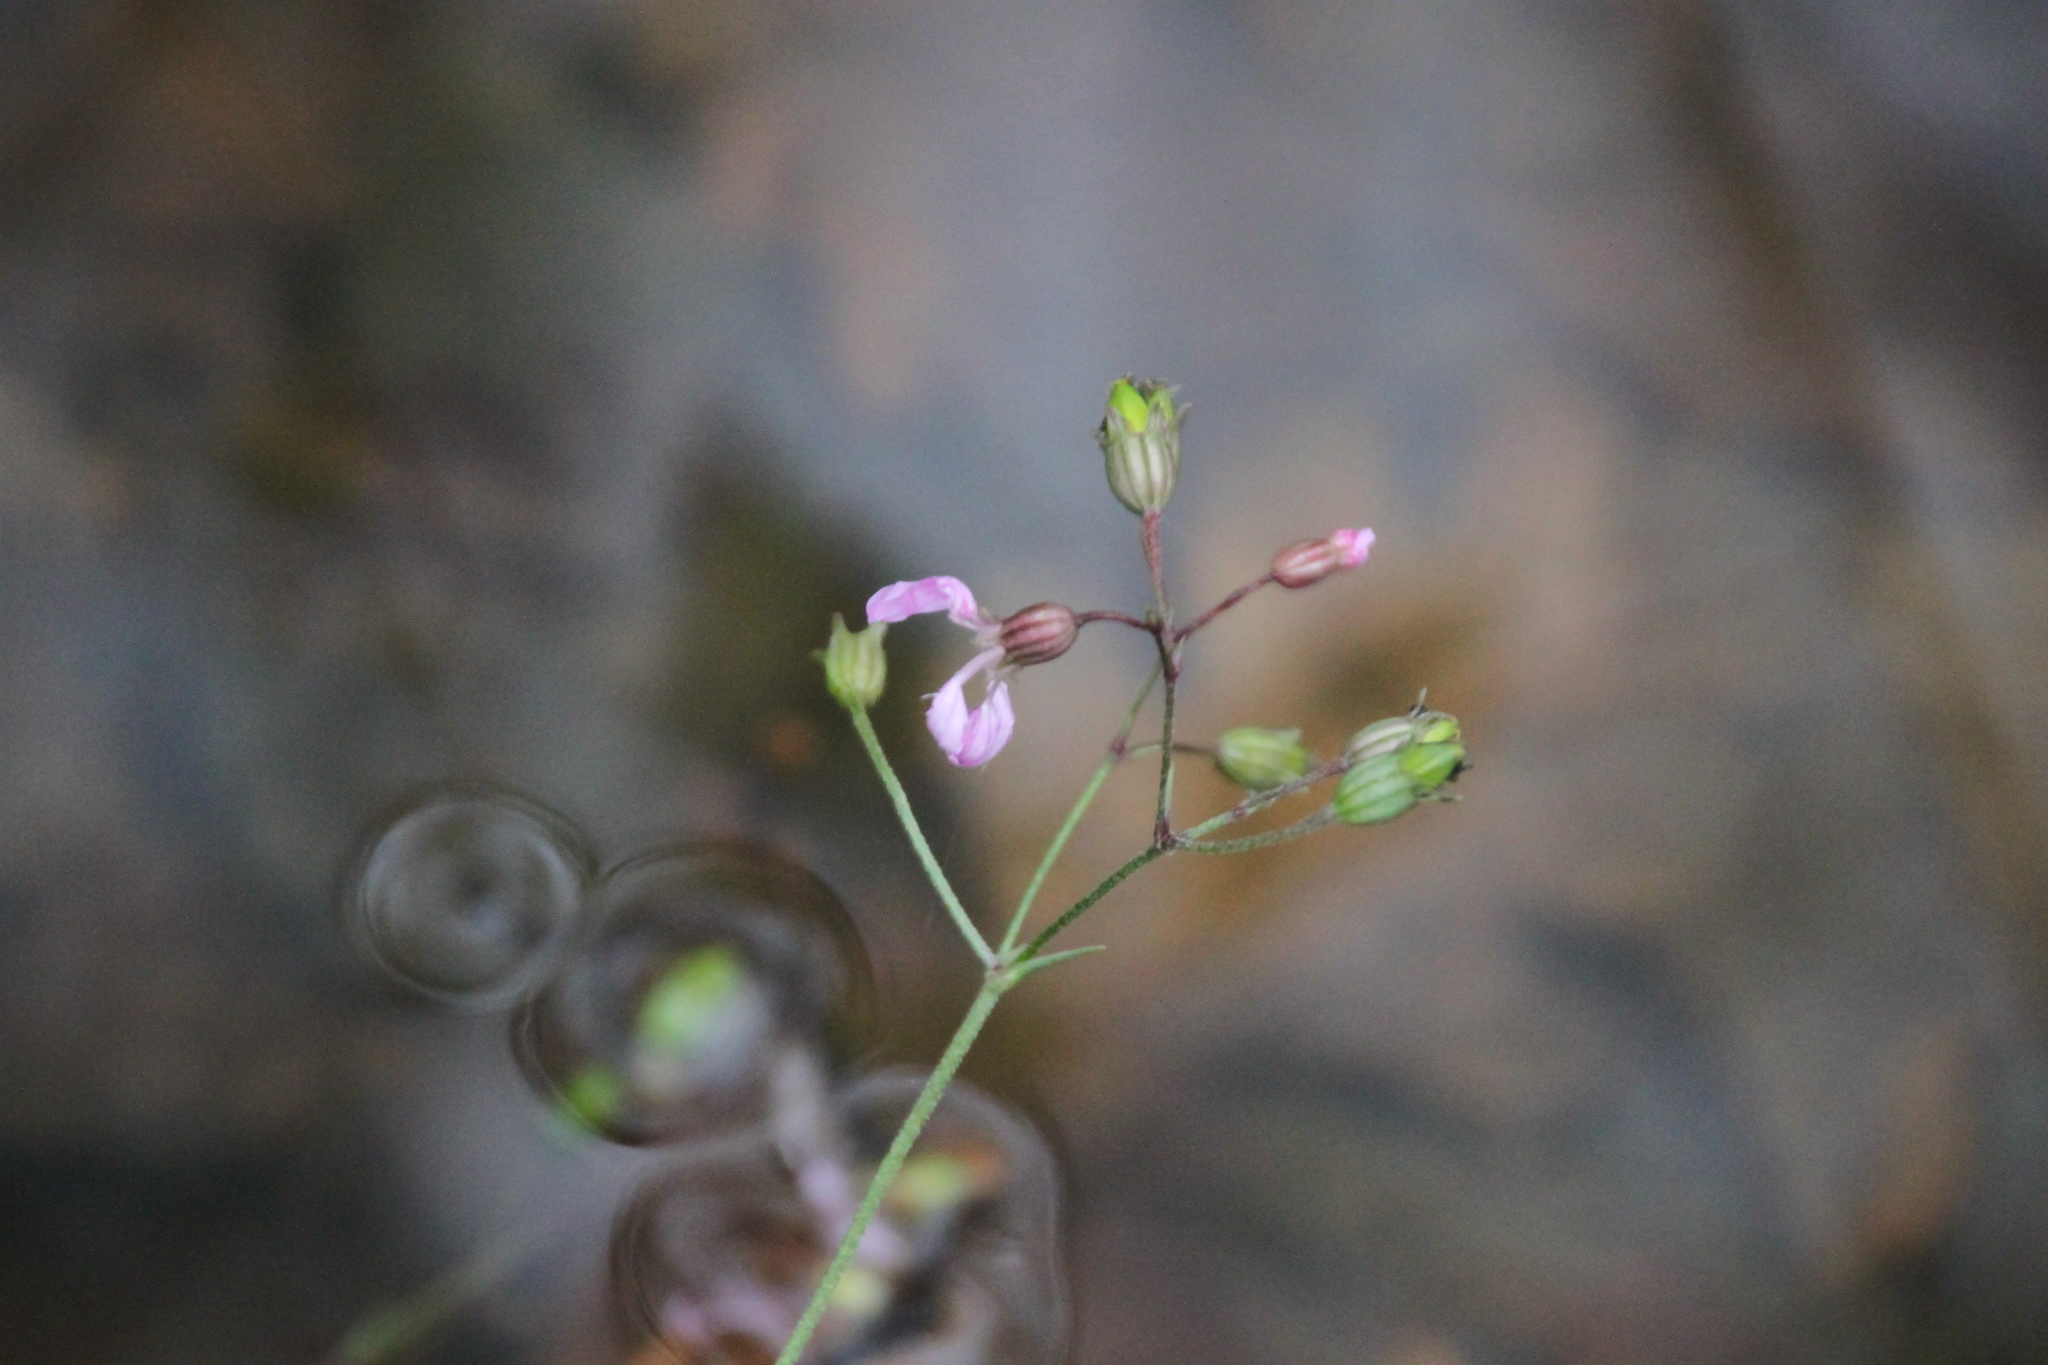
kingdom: Plantae
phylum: Tracheophyta
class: Magnoliopsida
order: Caryophyllales
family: Caryophyllaceae
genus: Silene
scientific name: Silene flos-cuculi
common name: Ragged-robin
